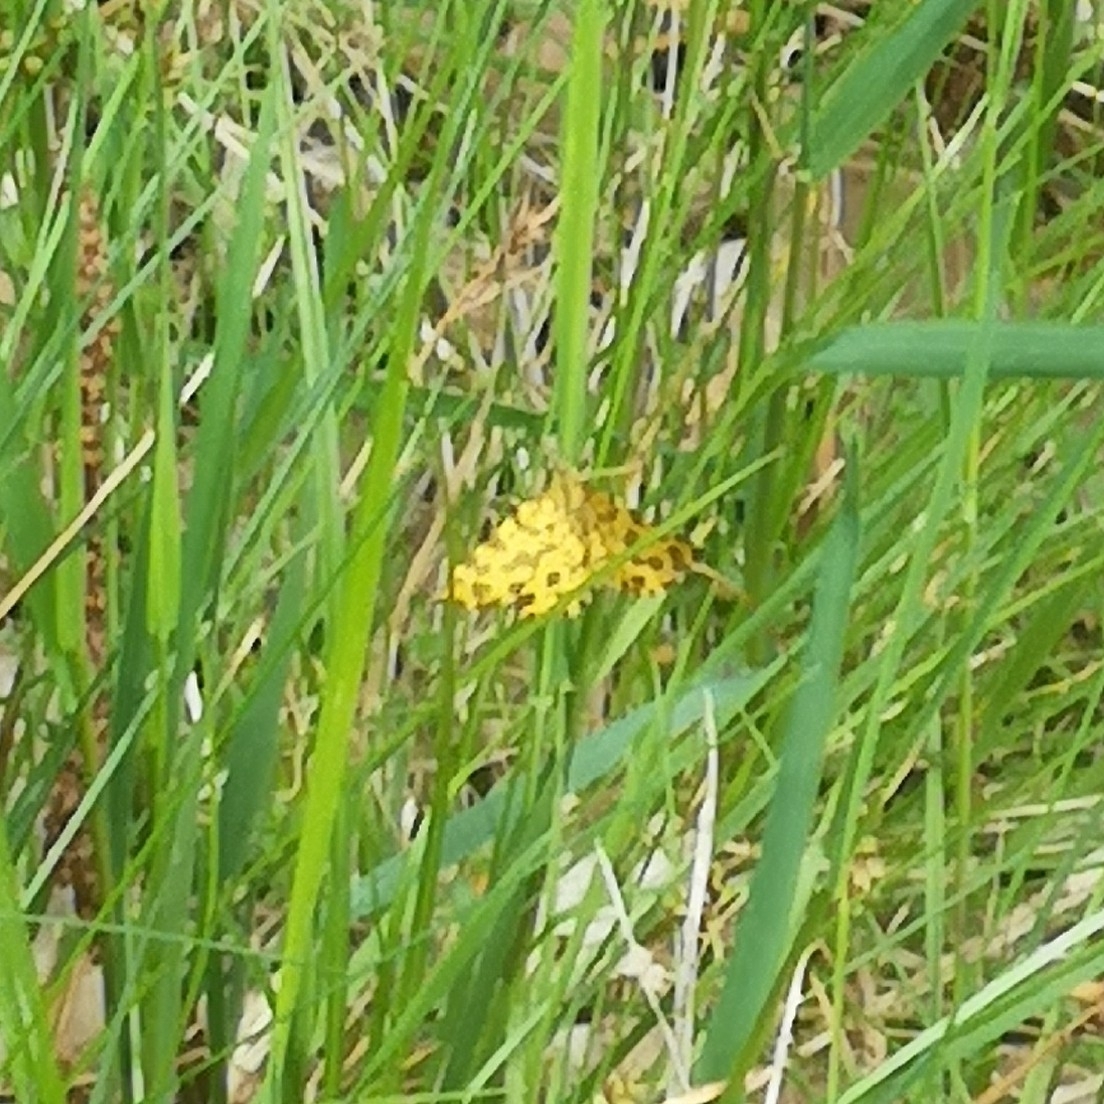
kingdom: Animalia
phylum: Arthropoda
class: Insecta
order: Lepidoptera
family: Geometridae
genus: Pseudopanthera
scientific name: Pseudopanthera macularia
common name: Speckled yellow
